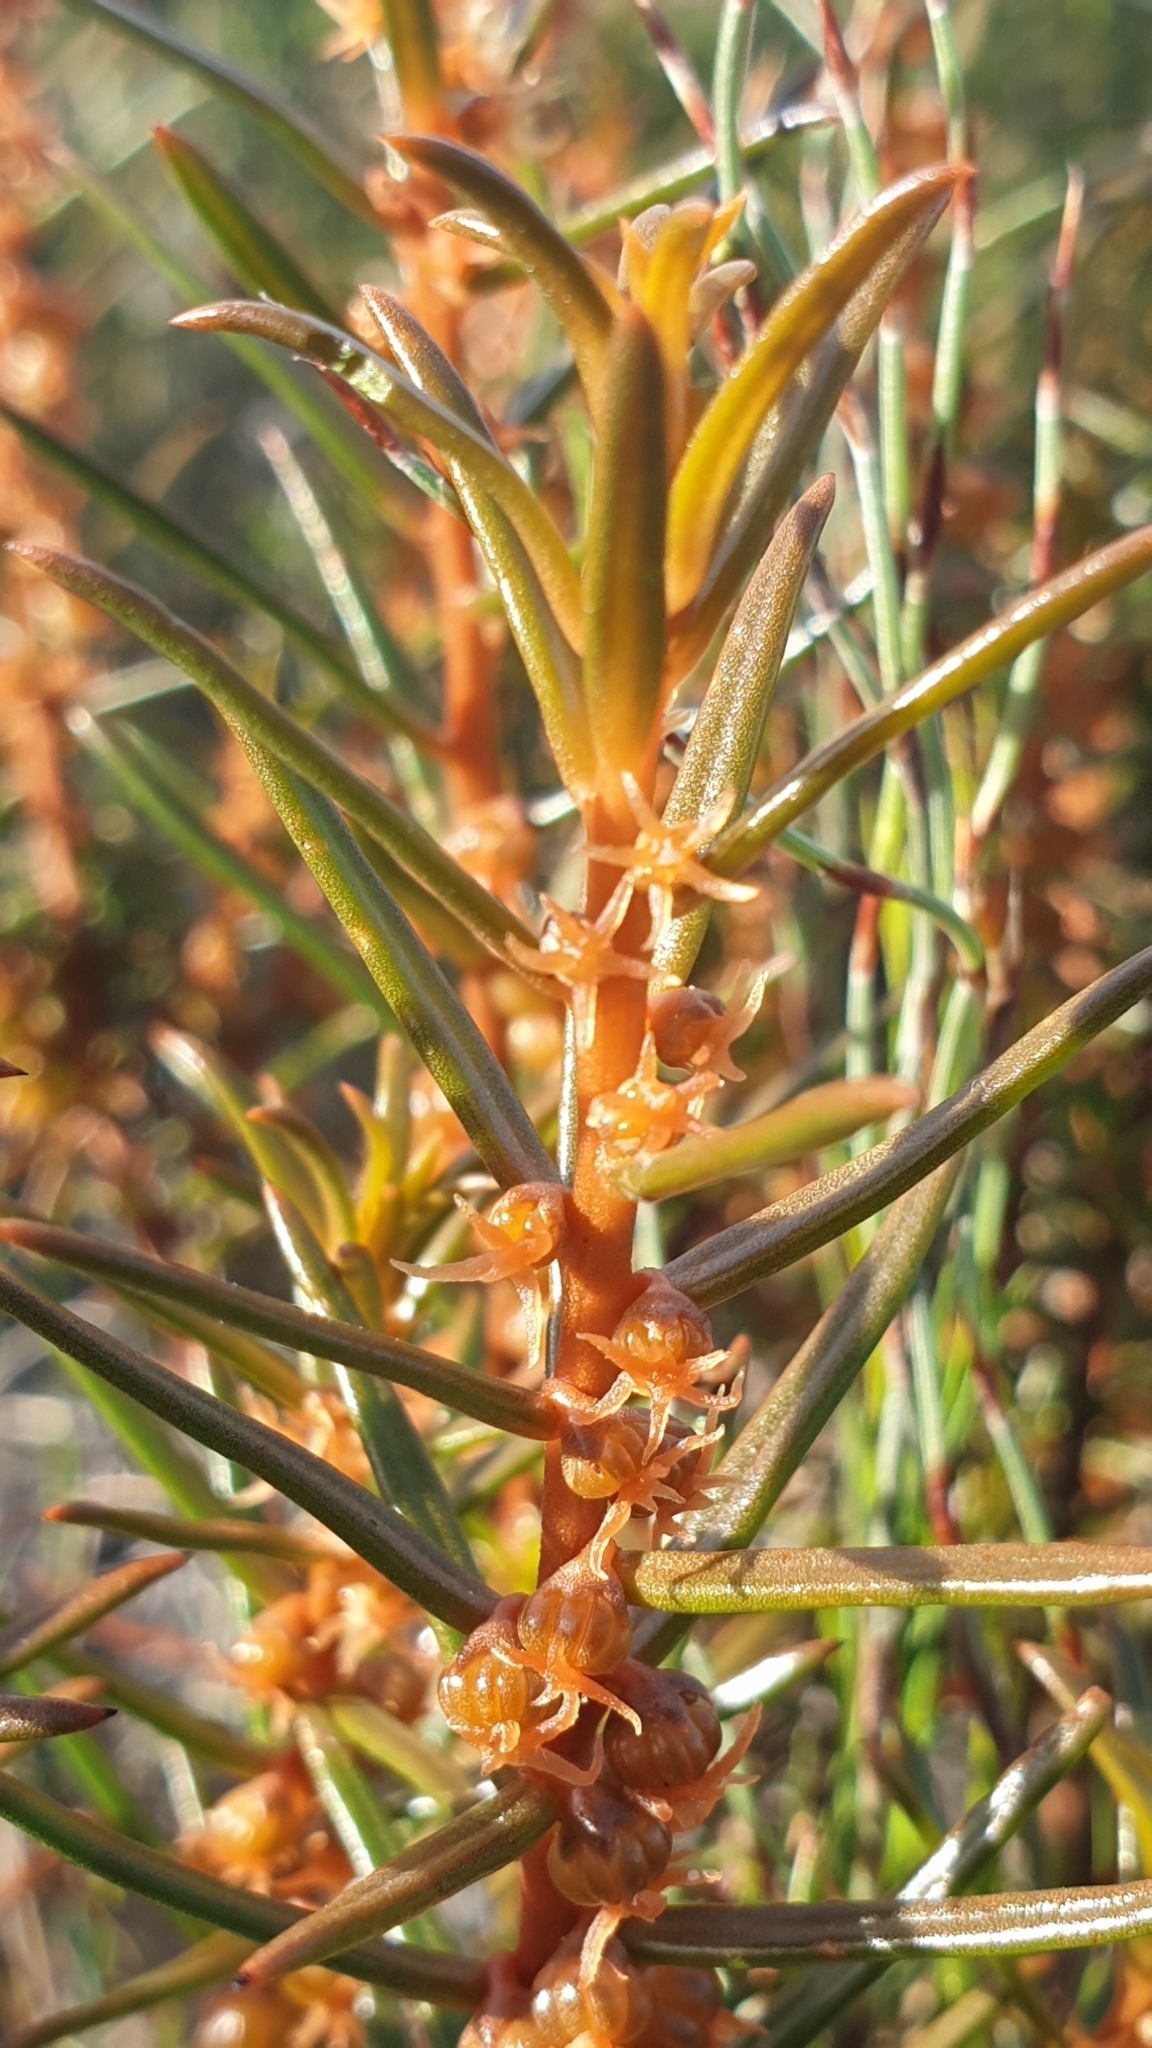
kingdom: Plantae
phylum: Tracheophyta
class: Magnoliopsida
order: Brassicales
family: Gyrostemonaceae
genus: Gyrostemon
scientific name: Gyrostemon australasicus
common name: Wheelfruit
